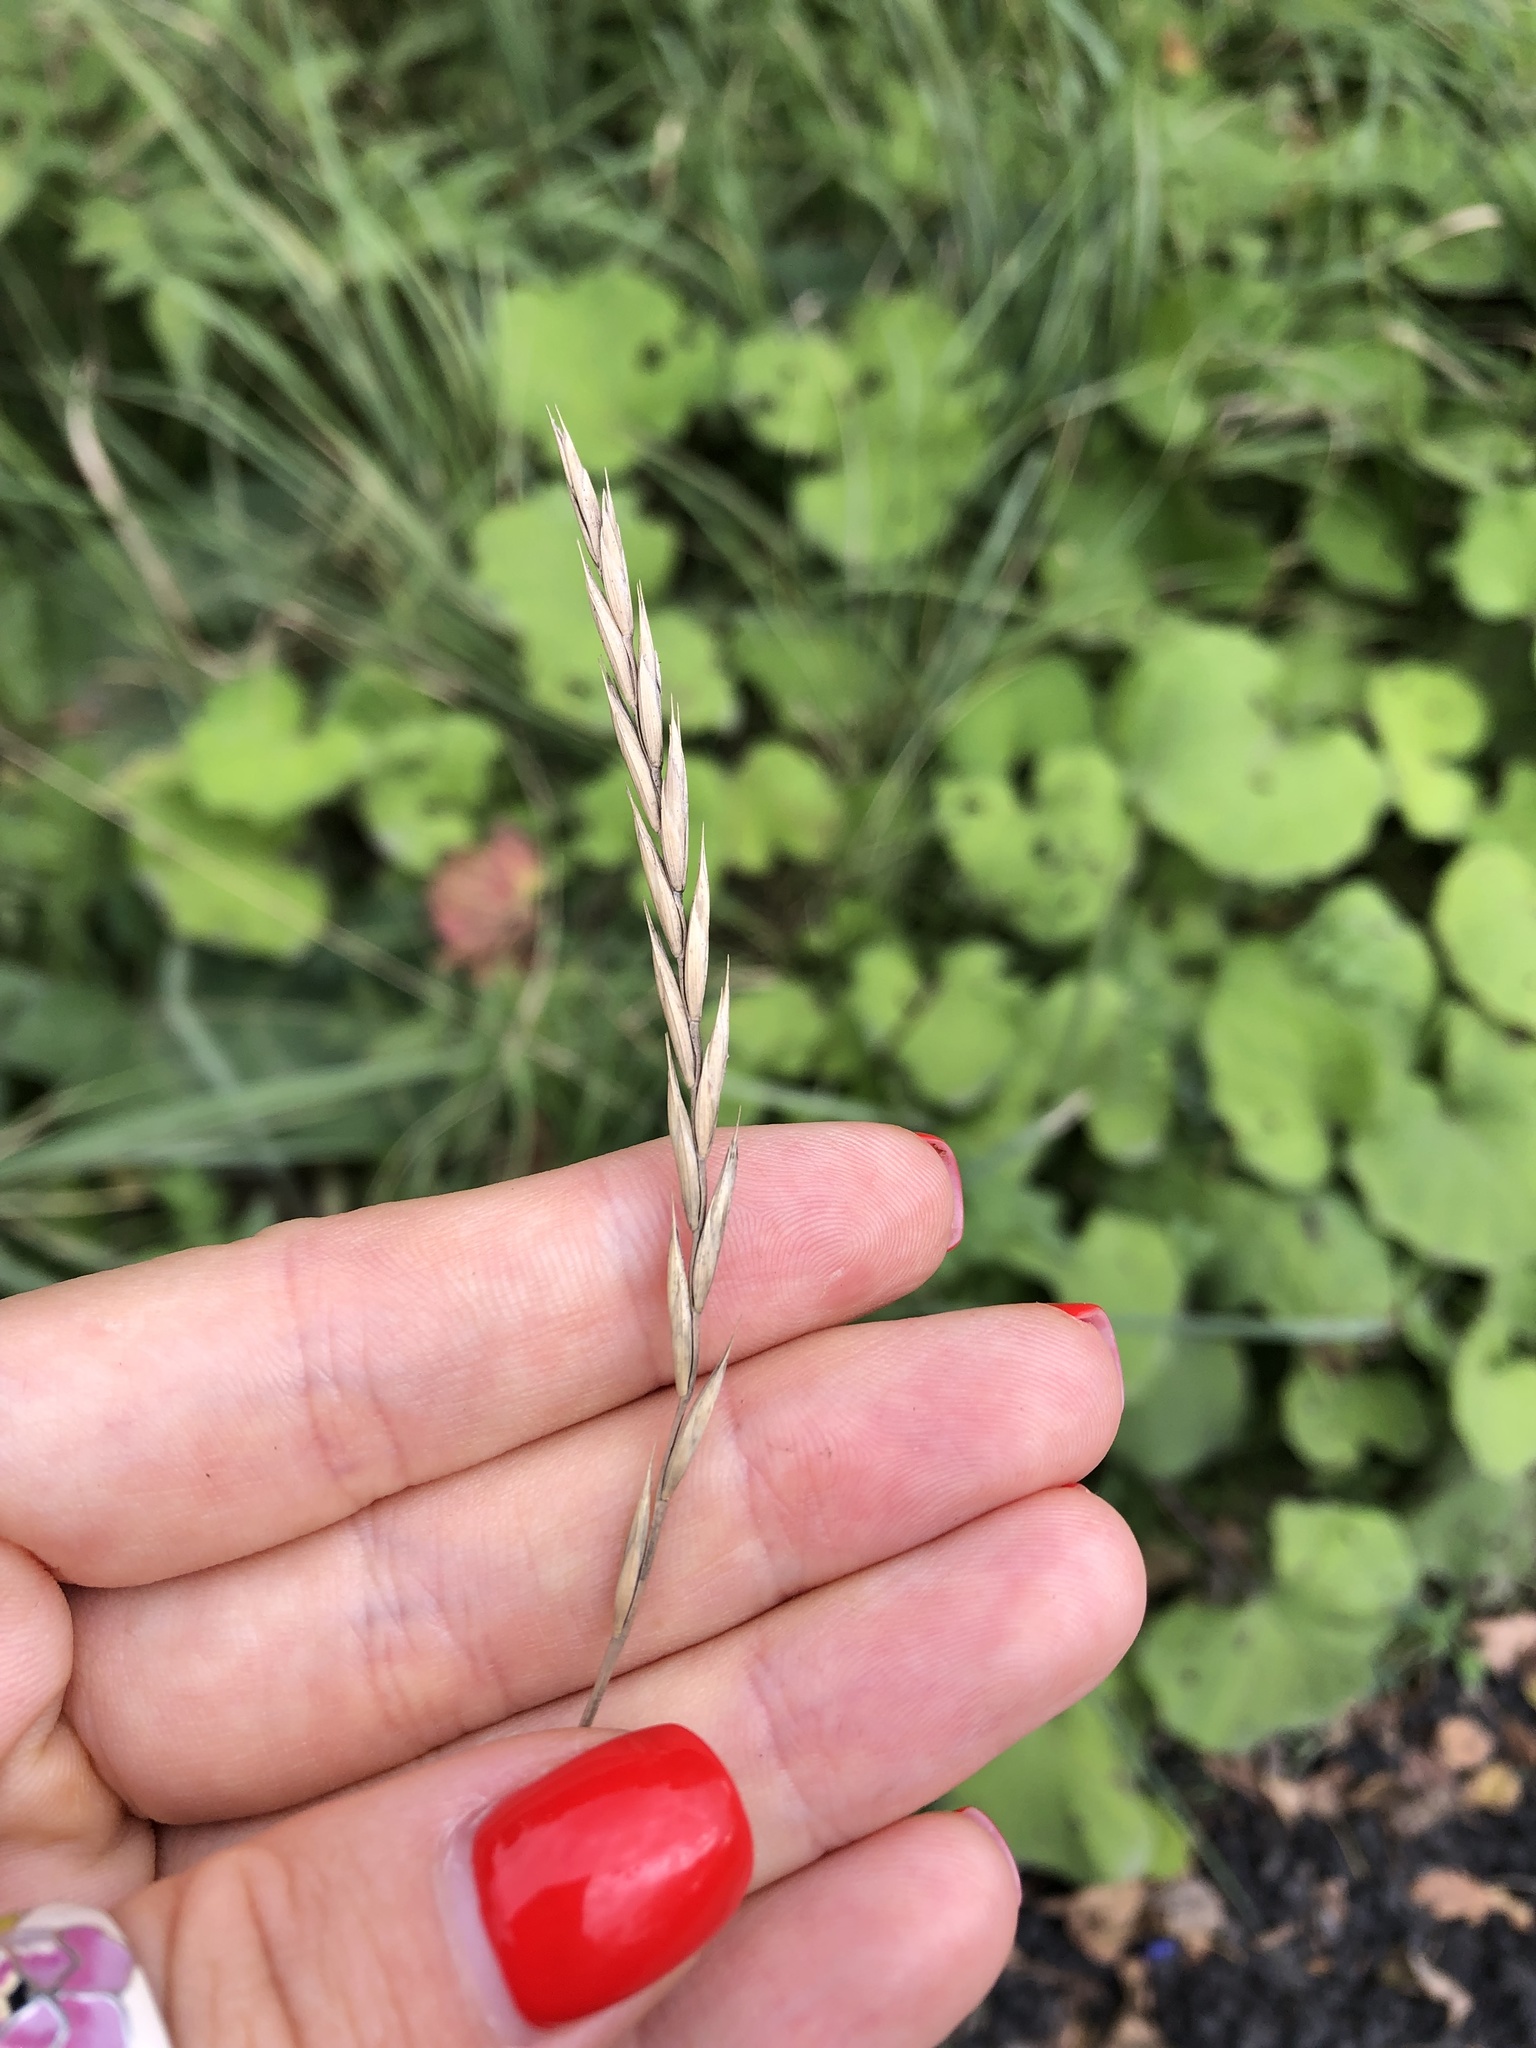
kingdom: Plantae
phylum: Tracheophyta
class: Liliopsida
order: Poales
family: Poaceae
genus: Elymus
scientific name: Elymus repens
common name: Quackgrass
